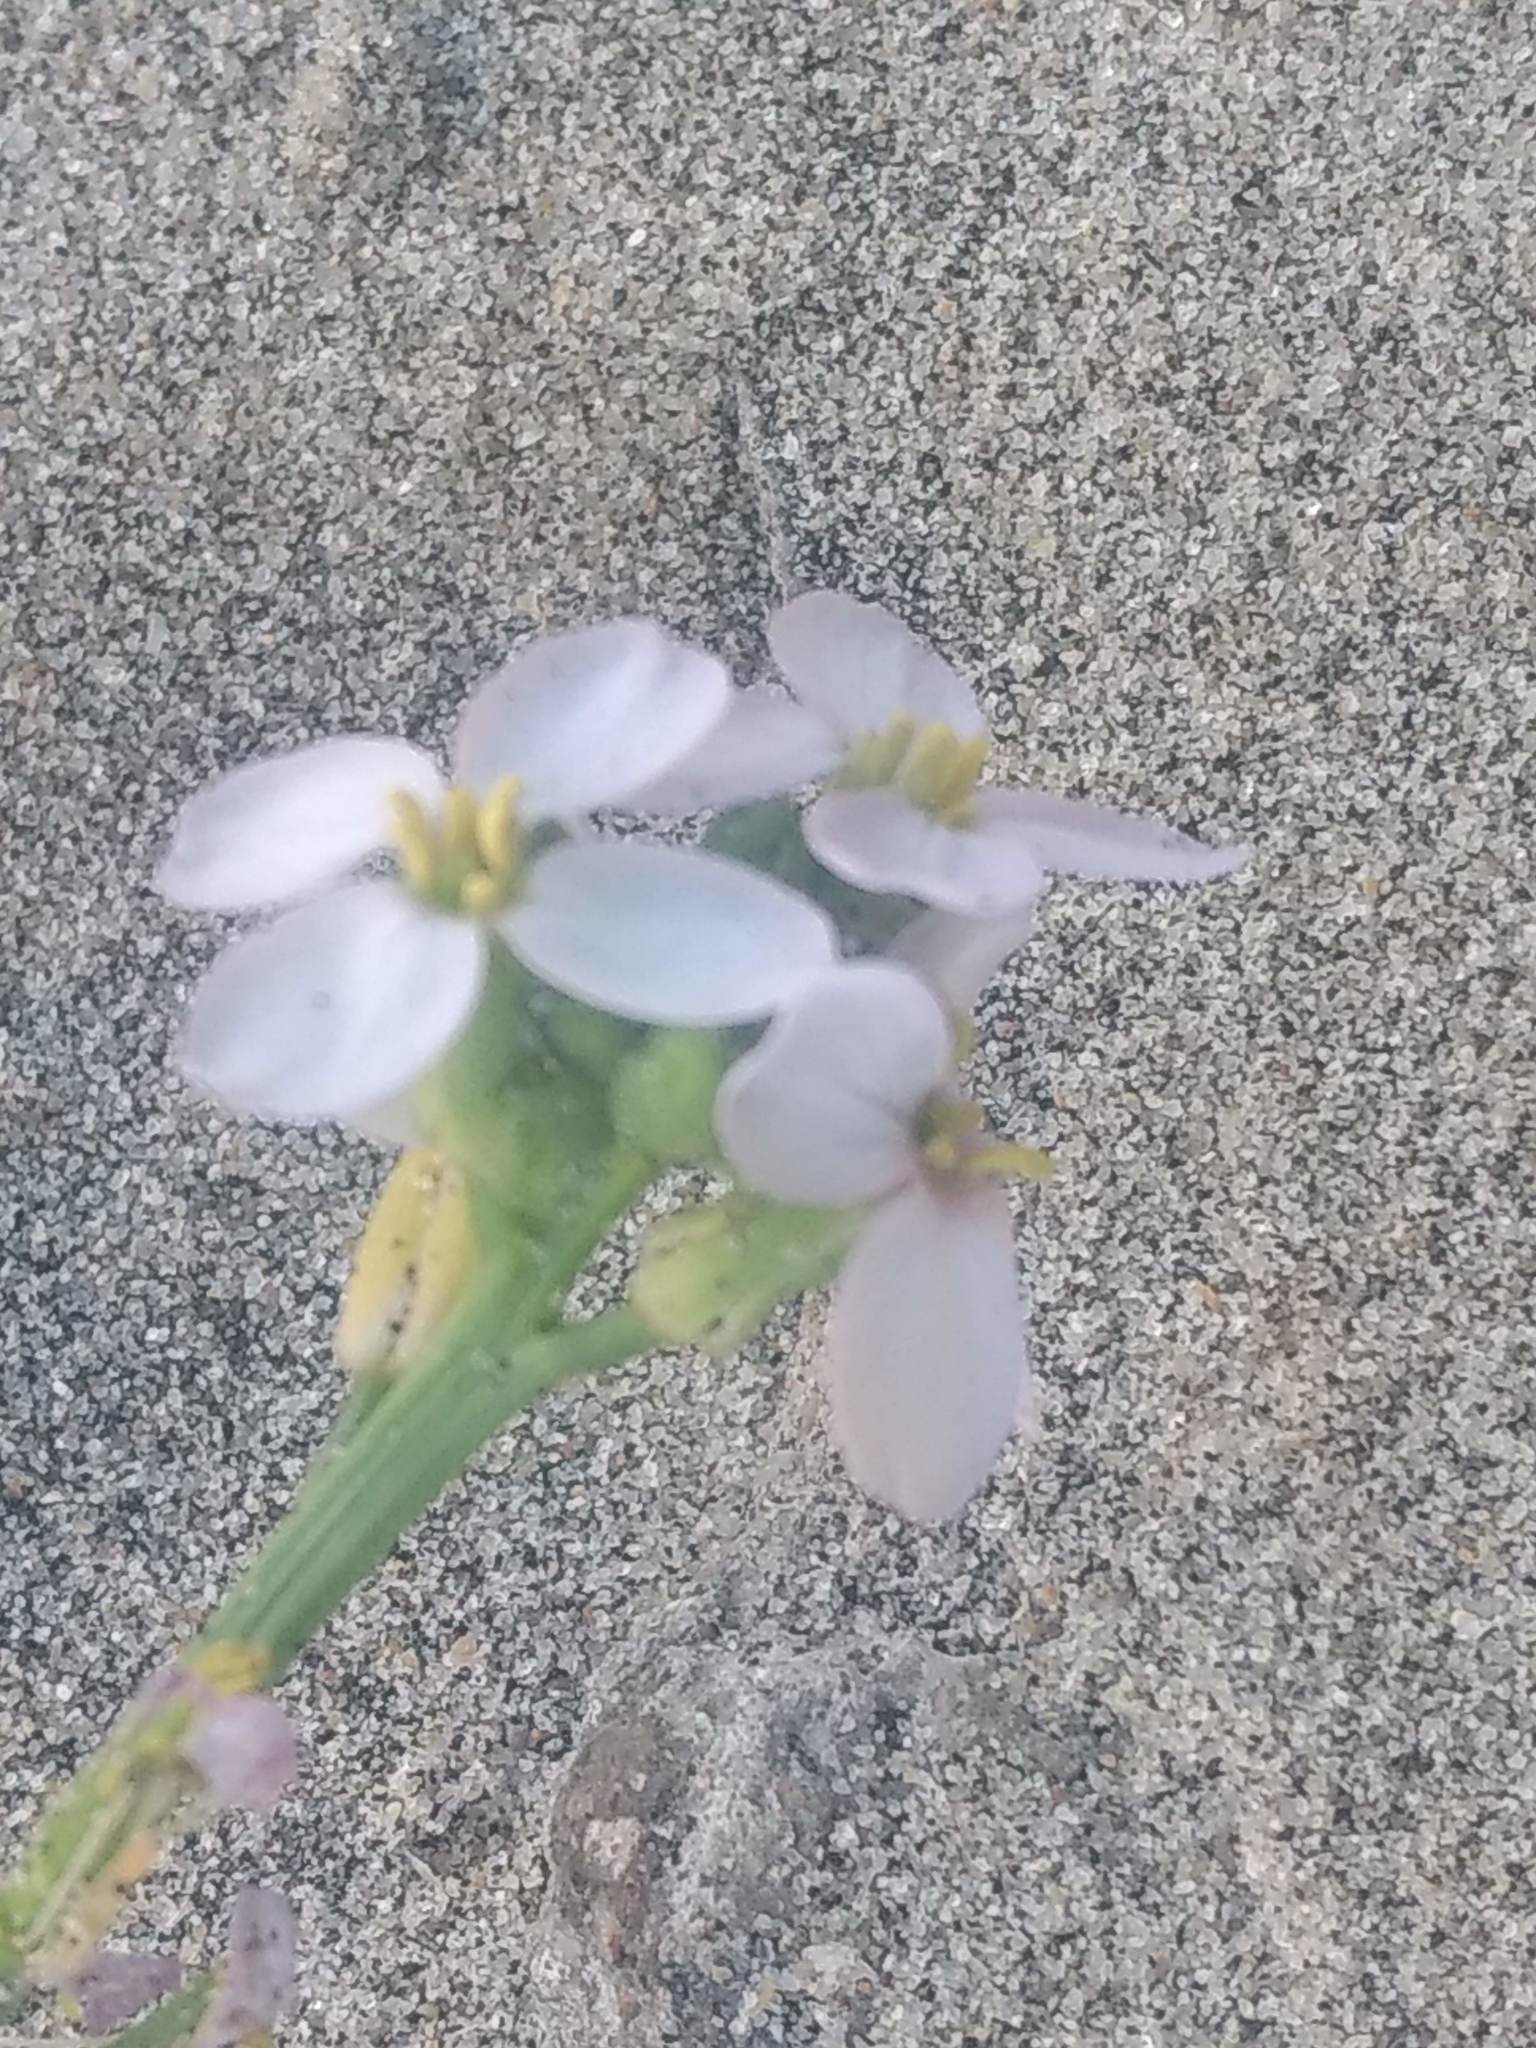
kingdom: Plantae
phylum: Tracheophyta
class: Magnoliopsida
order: Brassicales
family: Brassicaceae
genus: Cakile
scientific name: Cakile maritima
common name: Sea rocket
